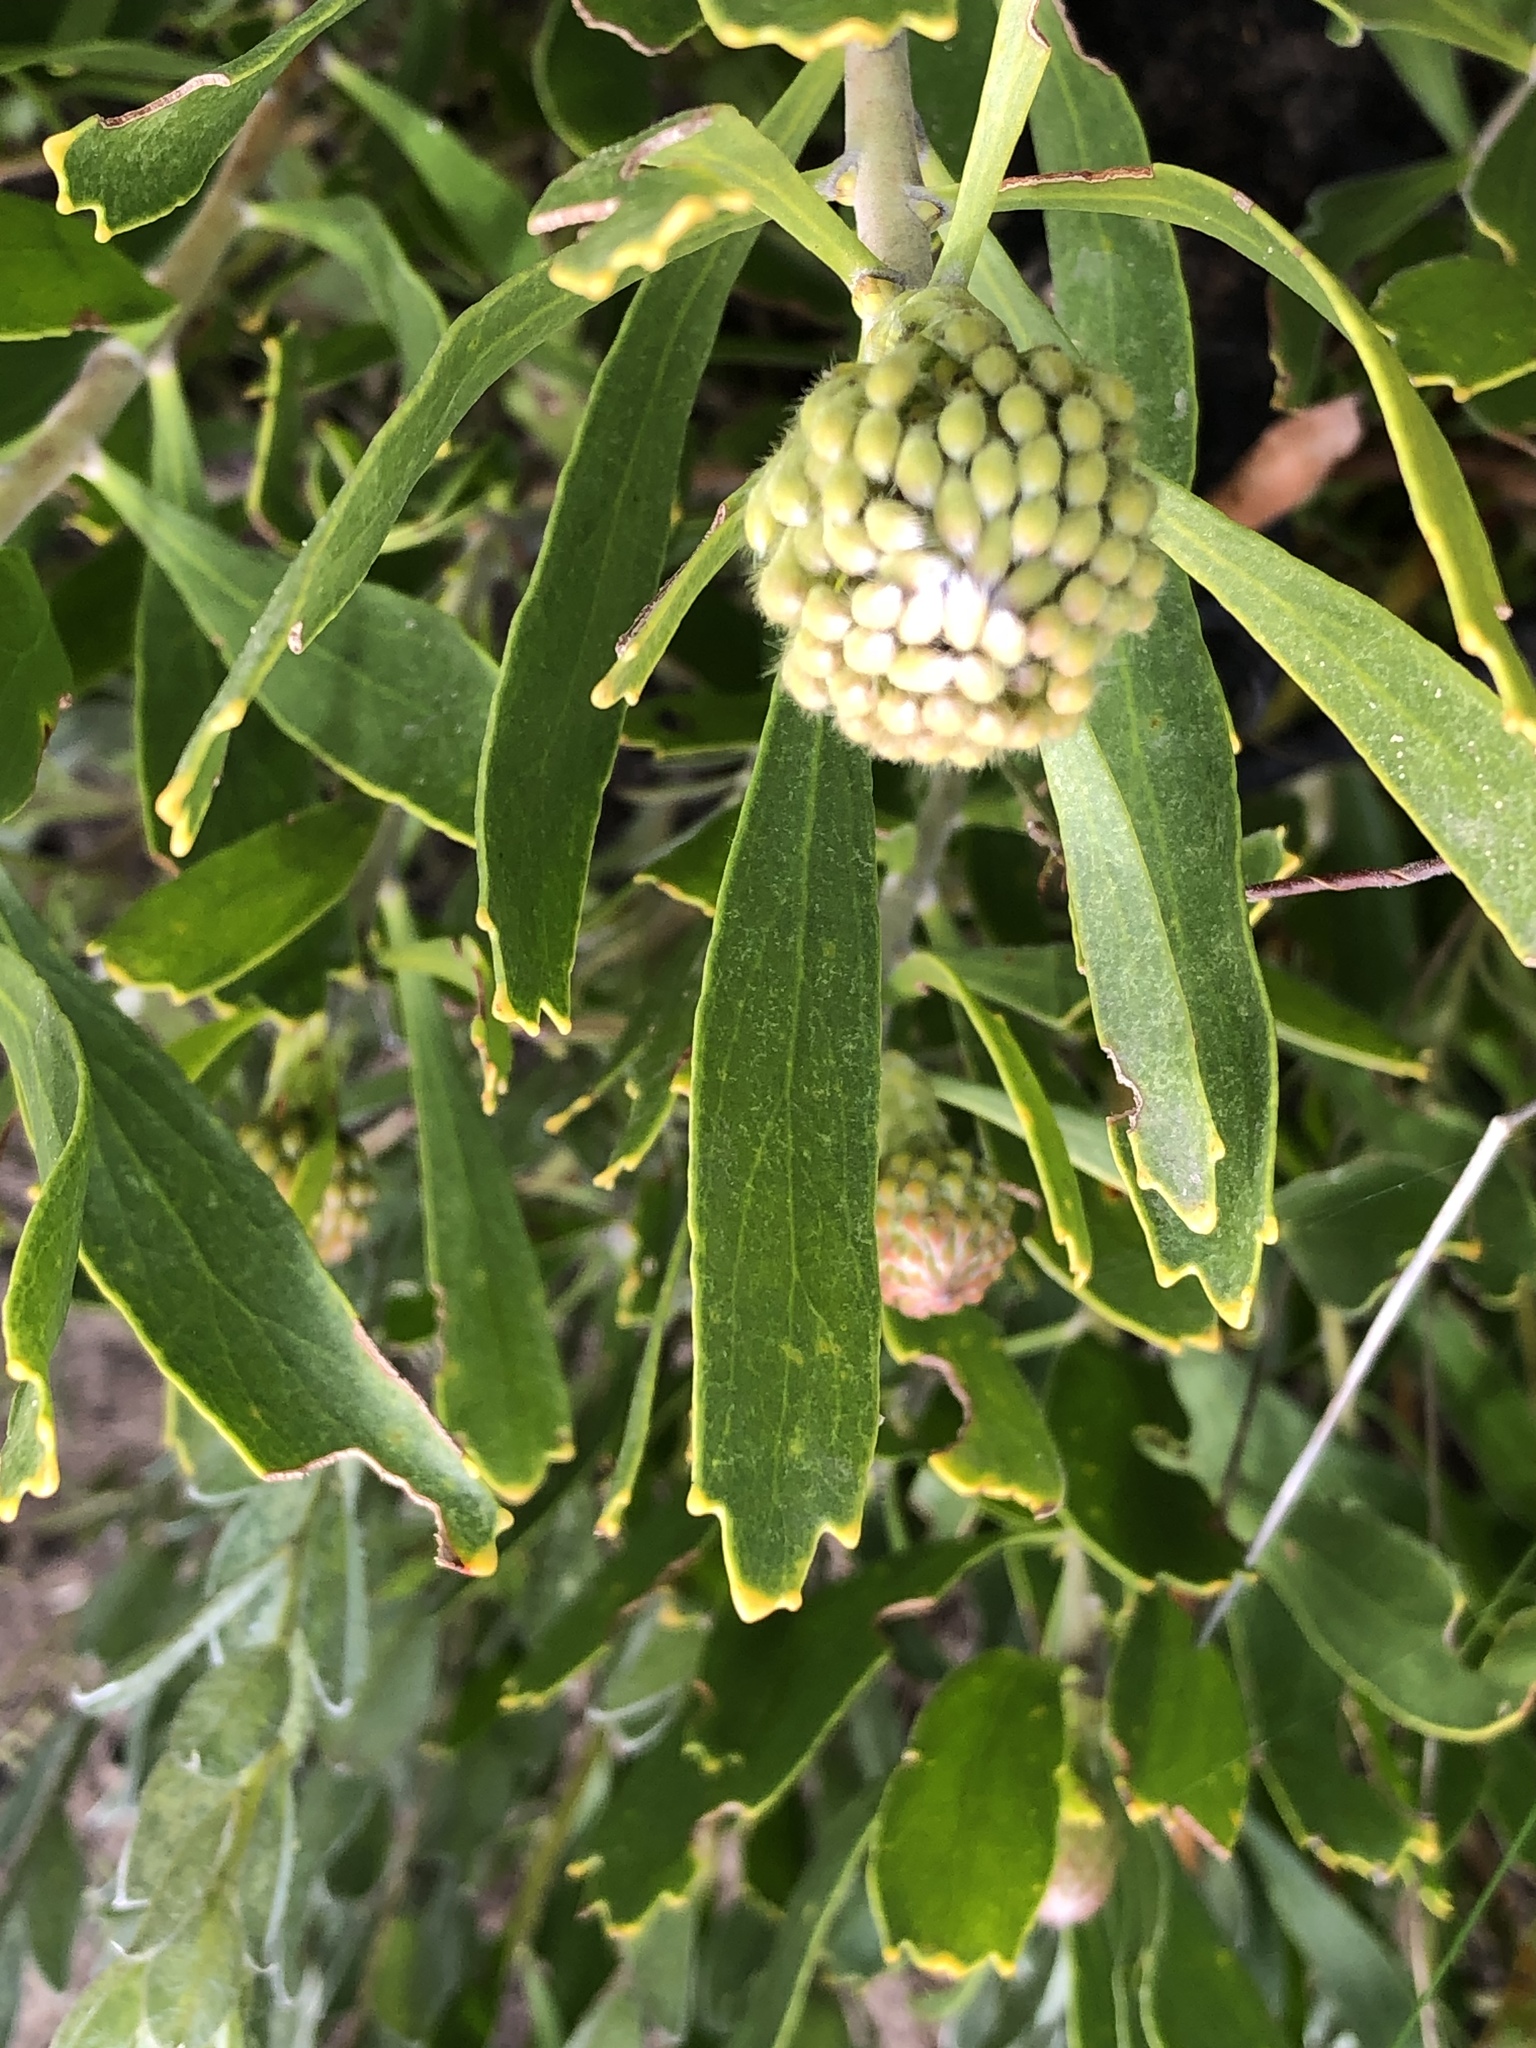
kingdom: Plantae
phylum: Tracheophyta
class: Magnoliopsida
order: Proteales
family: Proteaceae
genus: Leucospermum
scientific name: Leucospermum cuneiforme
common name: Common pincushion
